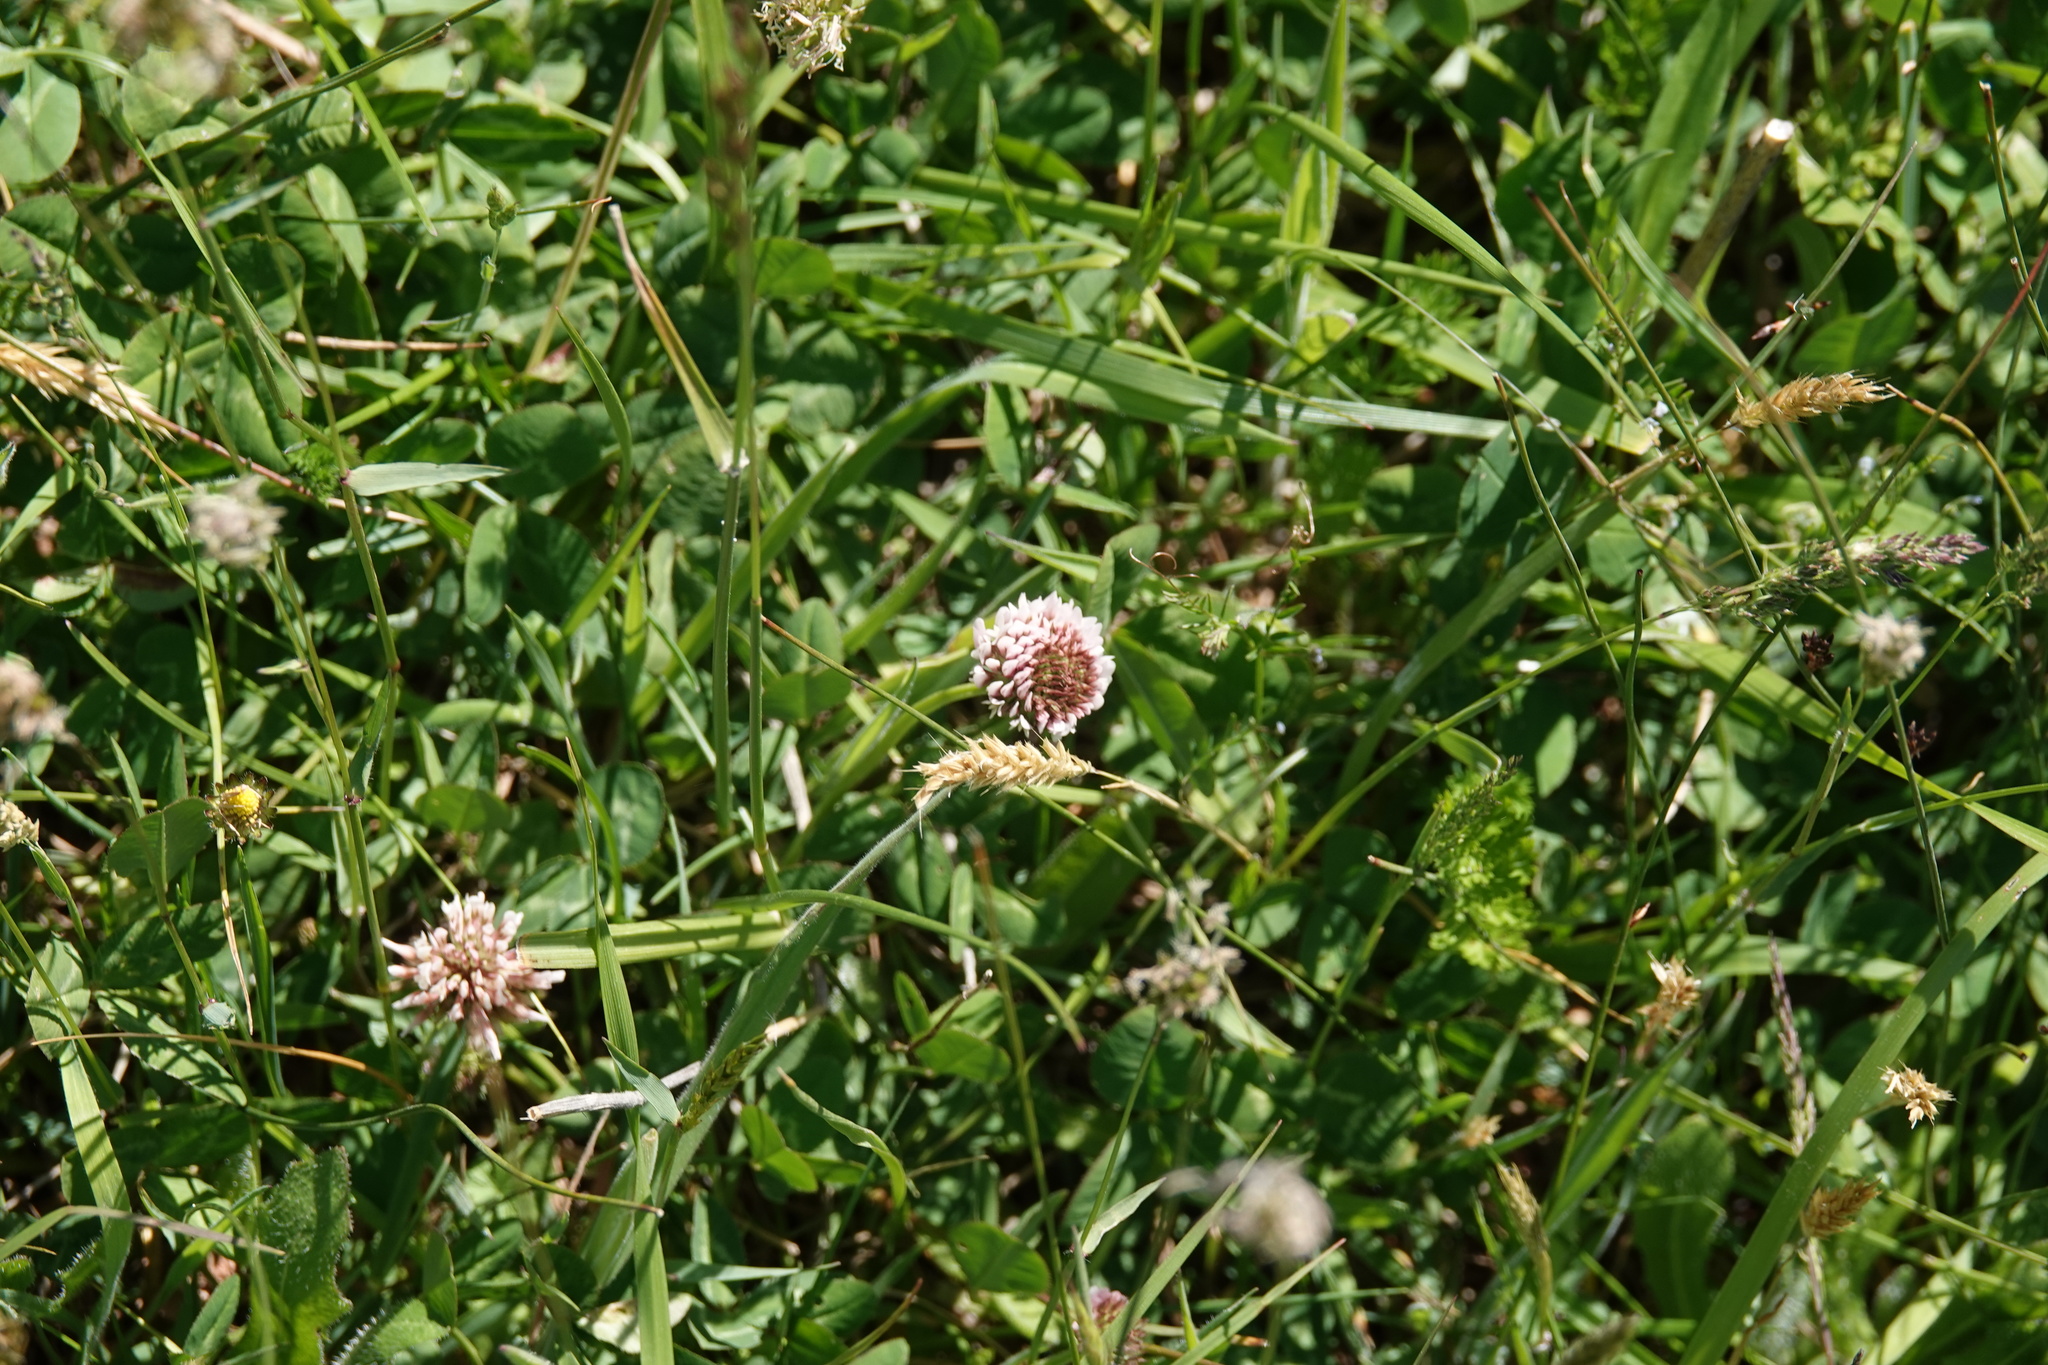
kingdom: Plantae
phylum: Tracheophyta
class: Magnoliopsida
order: Fabales
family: Fabaceae
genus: Trifolium
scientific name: Trifolium repens
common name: White clover
